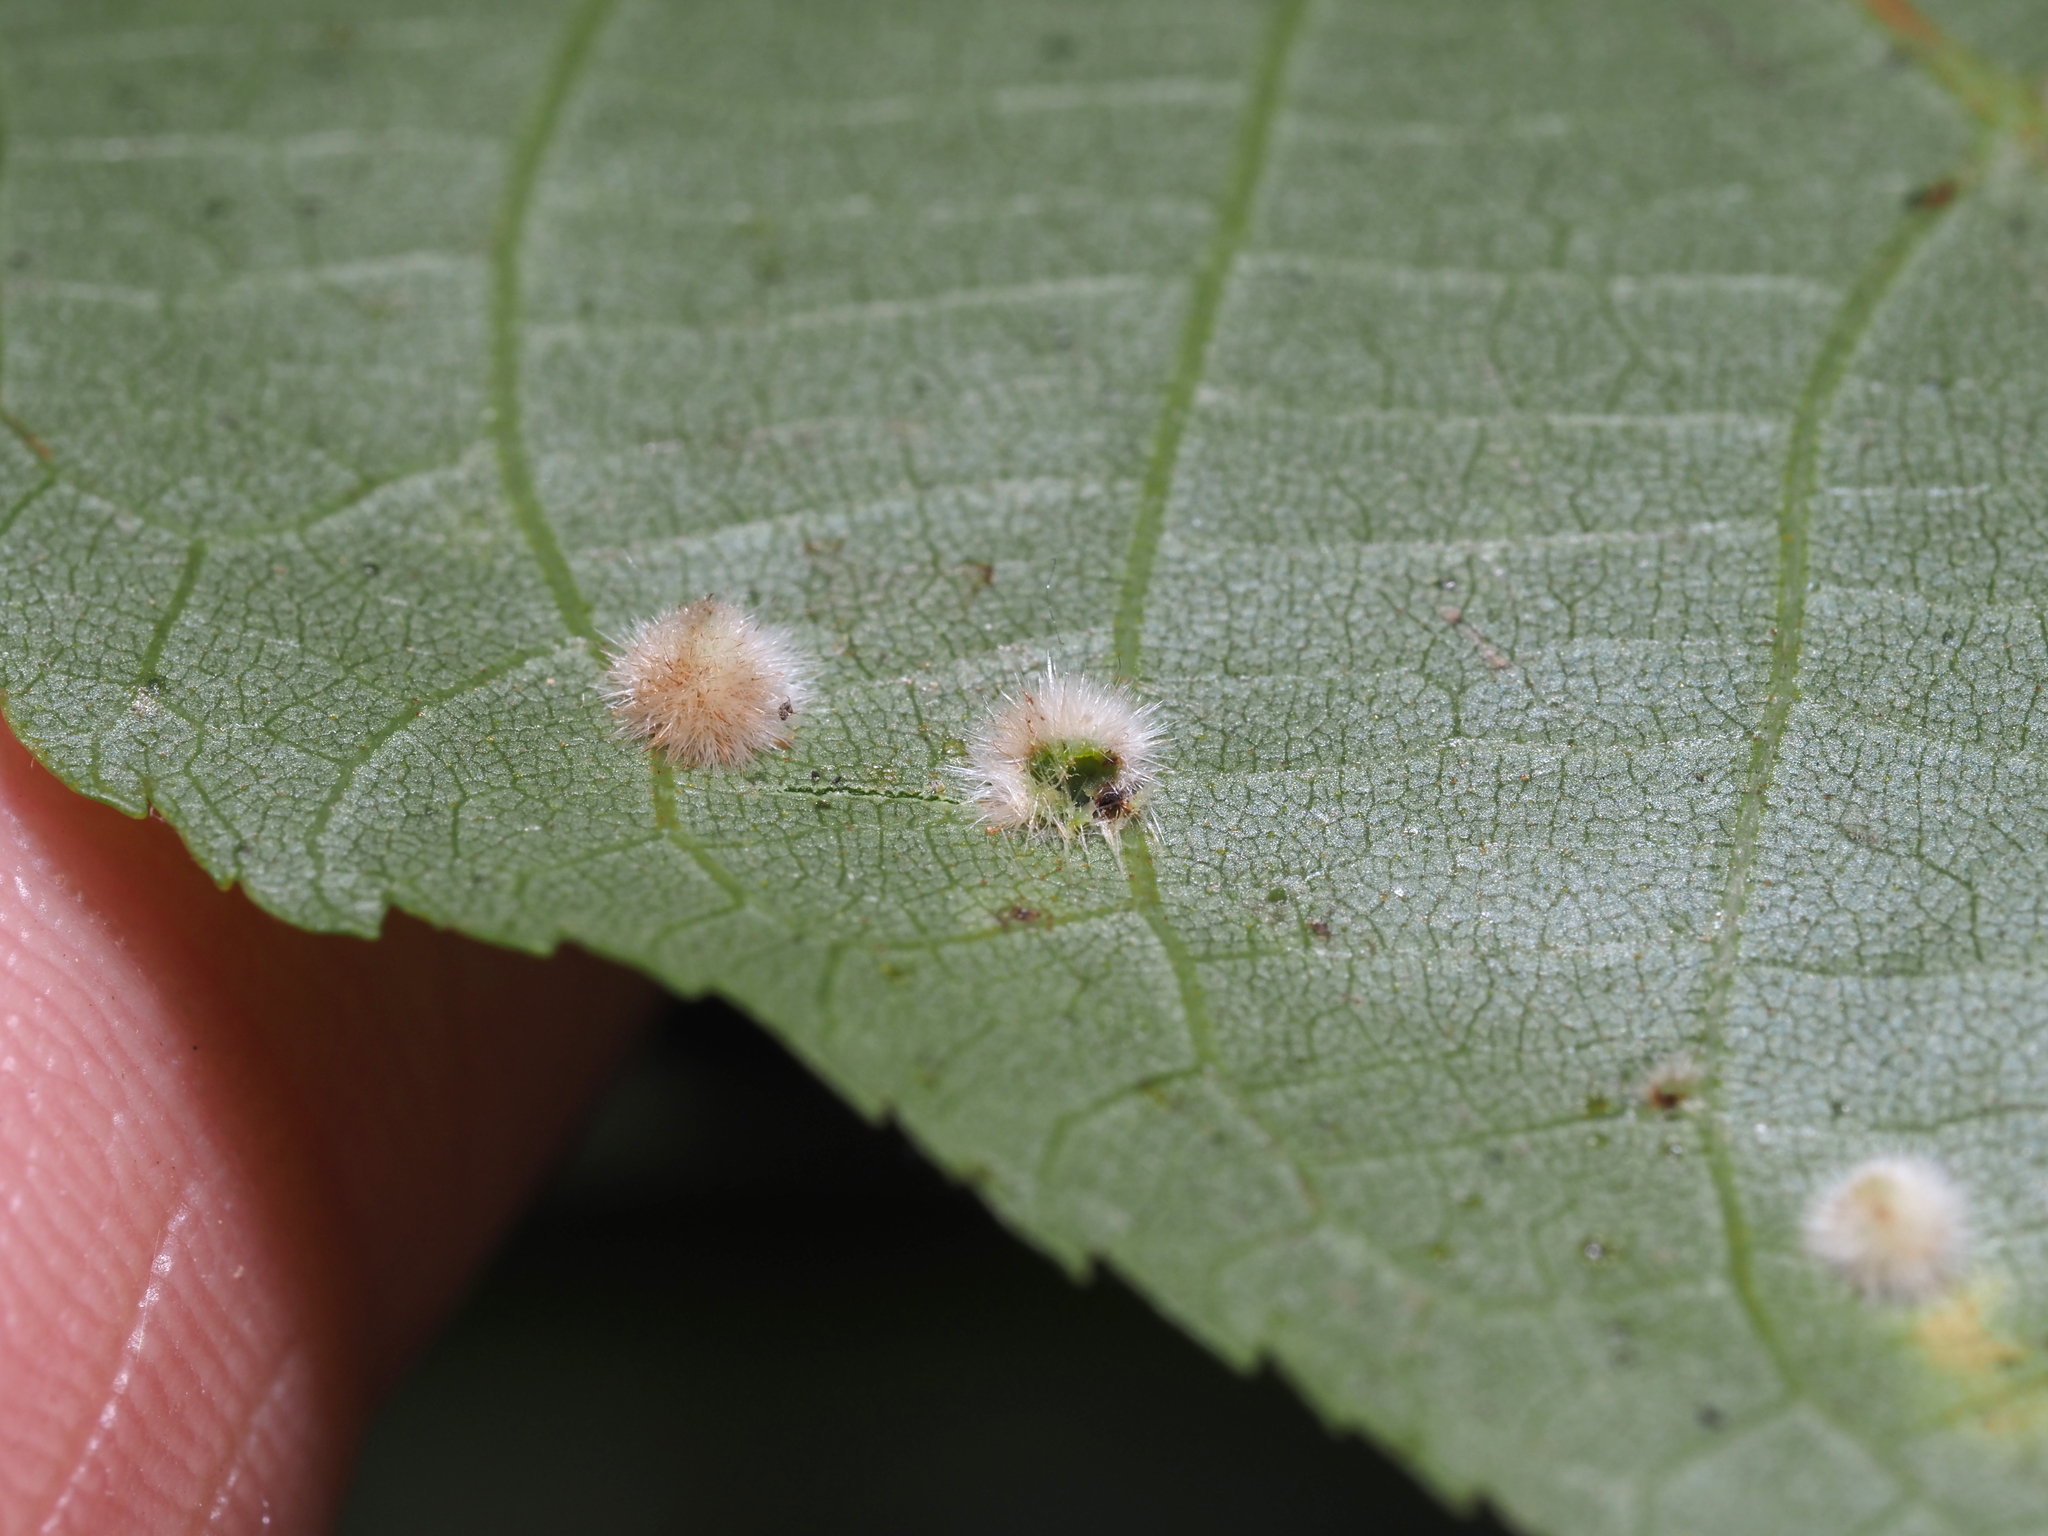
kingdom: Animalia
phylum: Arthropoda
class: Insecta
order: Diptera
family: Cecidomyiidae
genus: Caryomyia
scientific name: Caryomyia holotricha
